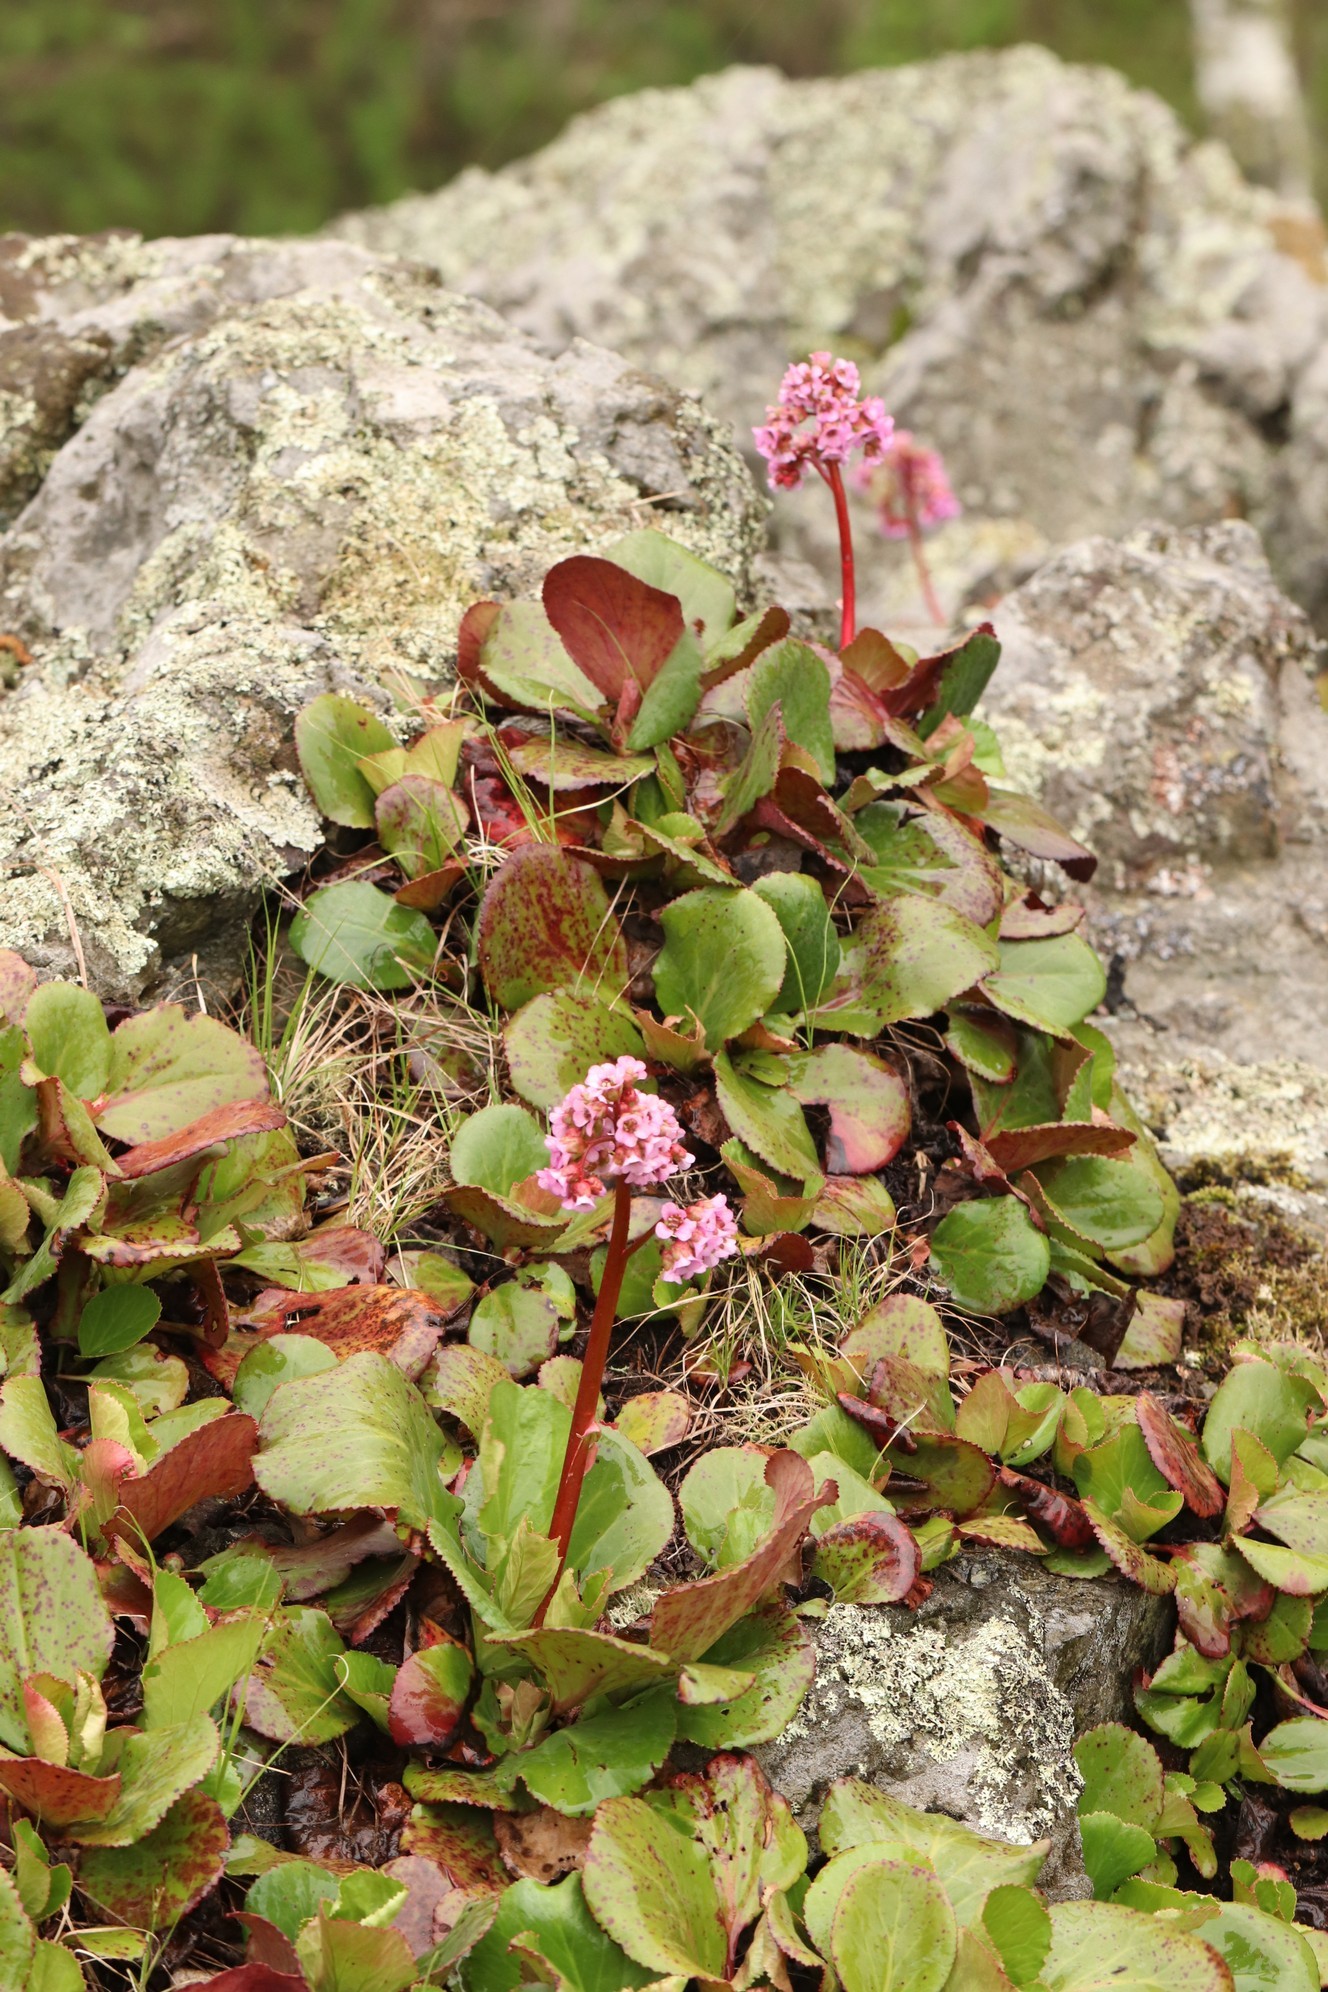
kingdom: Plantae
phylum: Tracheophyta
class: Magnoliopsida
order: Saxifragales
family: Saxifragaceae
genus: Bergenia
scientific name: Bergenia crassifolia
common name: Elephant-ears
